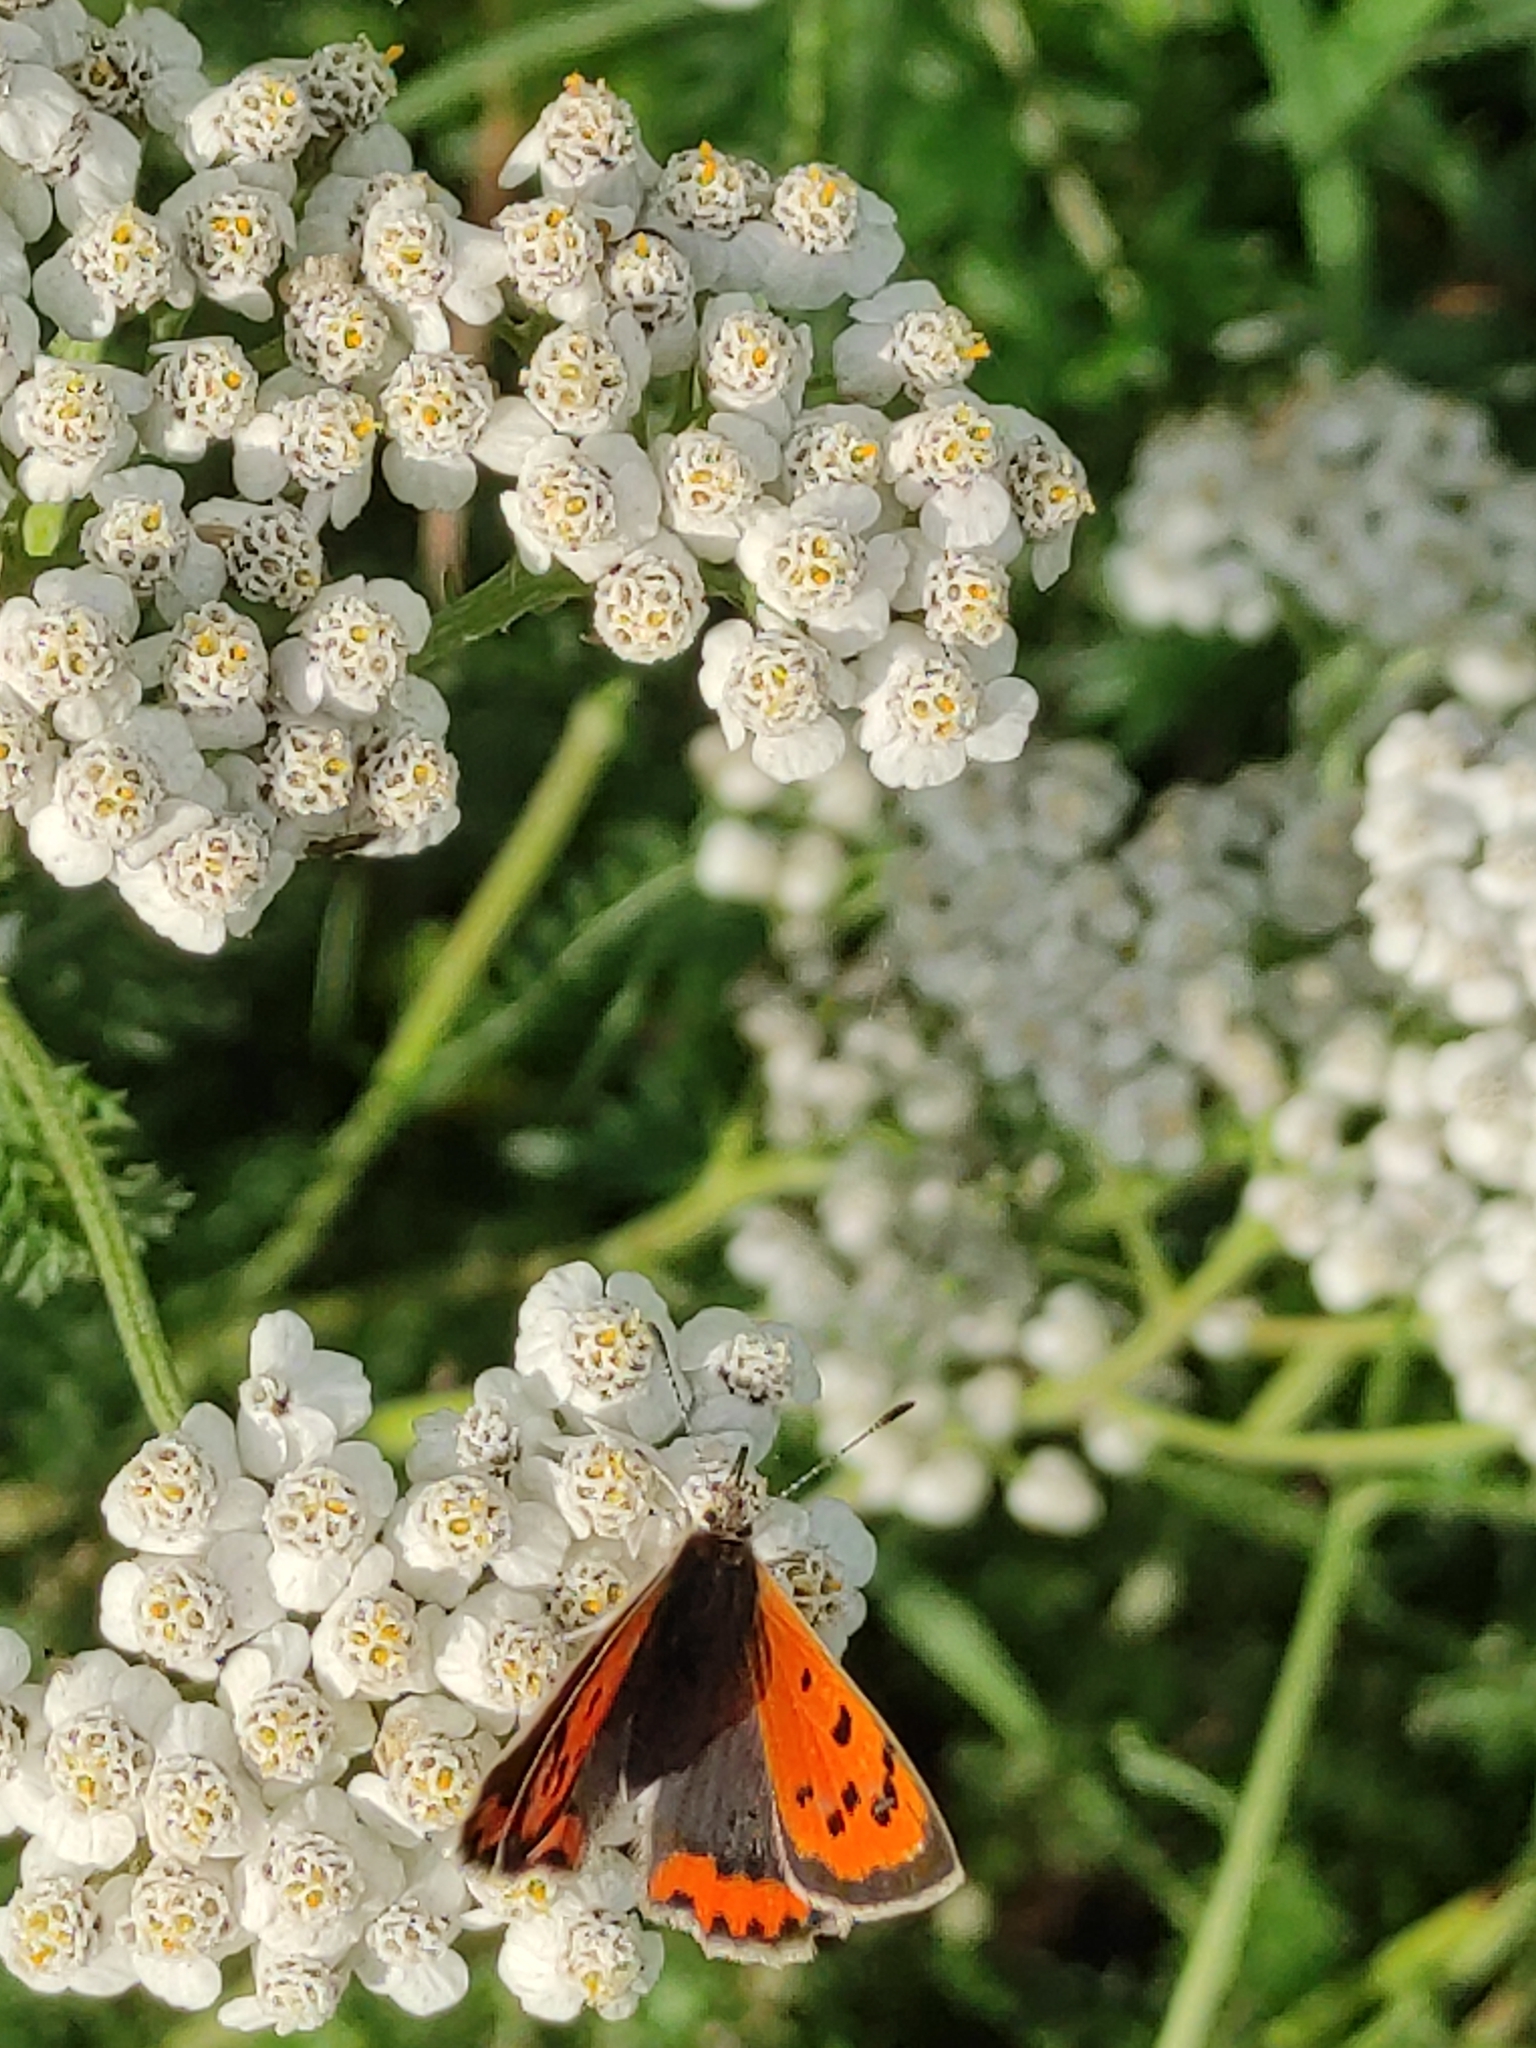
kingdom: Animalia
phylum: Arthropoda
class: Insecta
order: Lepidoptera
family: Lycaenidae
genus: Lycaena
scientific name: Lycaena phlaeas
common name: Small copper
